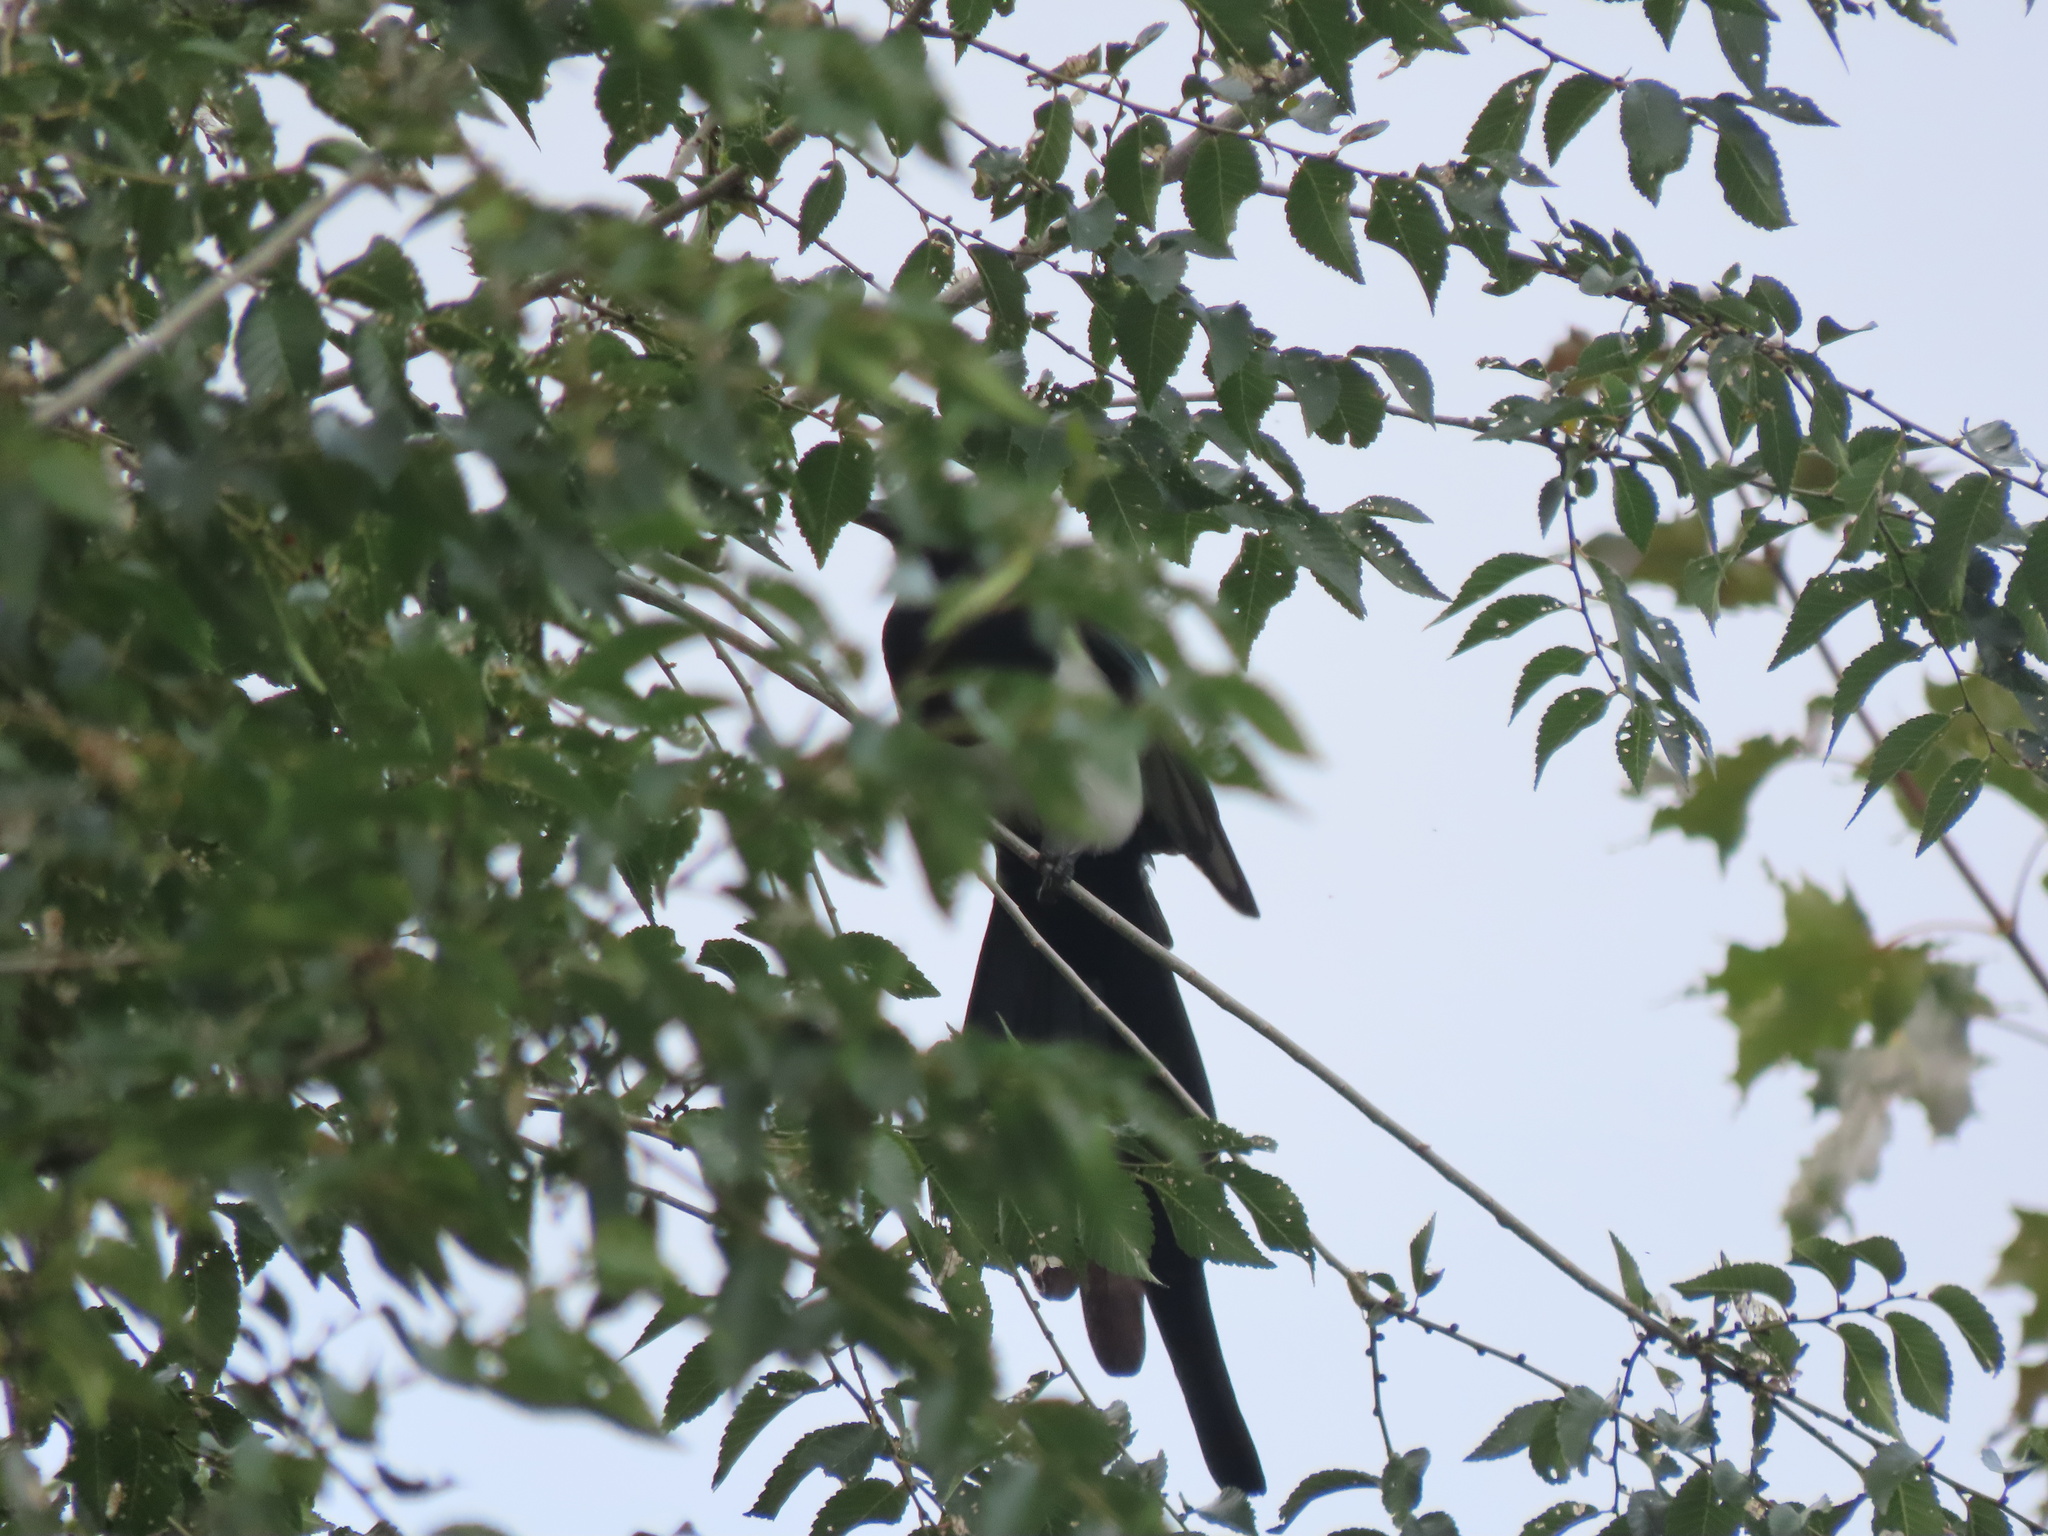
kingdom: Animalia
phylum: Chordata
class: Aves
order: Passeriformes
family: Corvidae
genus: Pica
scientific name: Pica hudsonia
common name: Black-billed magpie
